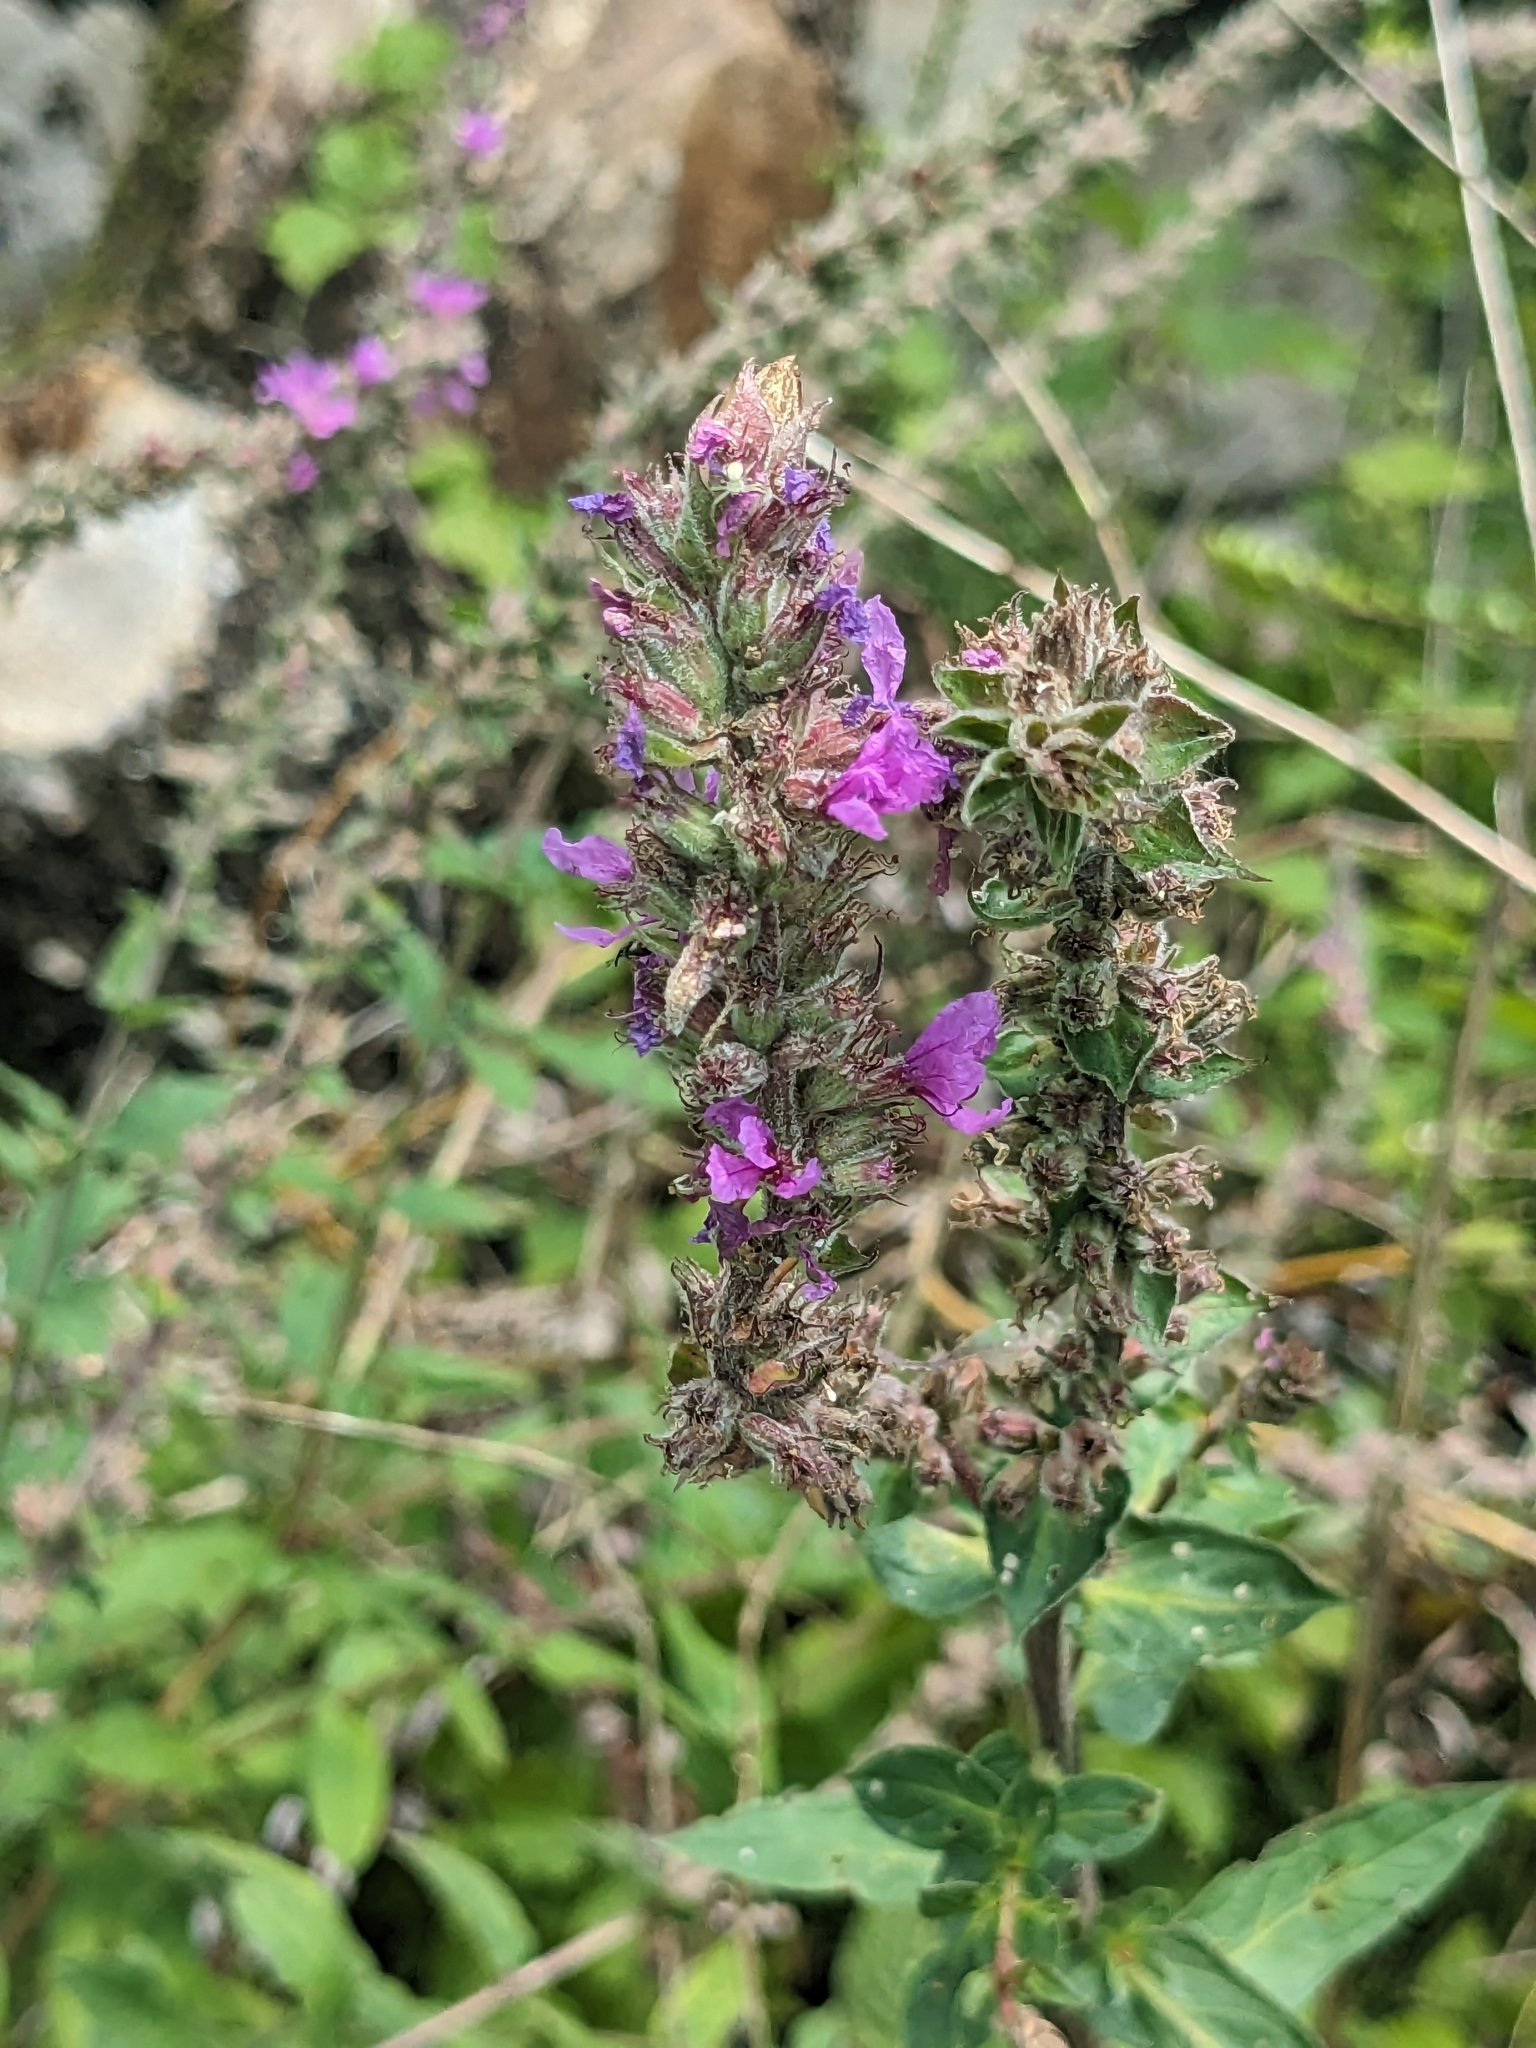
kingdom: Plantae
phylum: Tracheophyta
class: Magnoliopsida
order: Myrtales
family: Lythraceae
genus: Lythrum
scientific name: Lythrum salicaria
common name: Purple loosestrife
